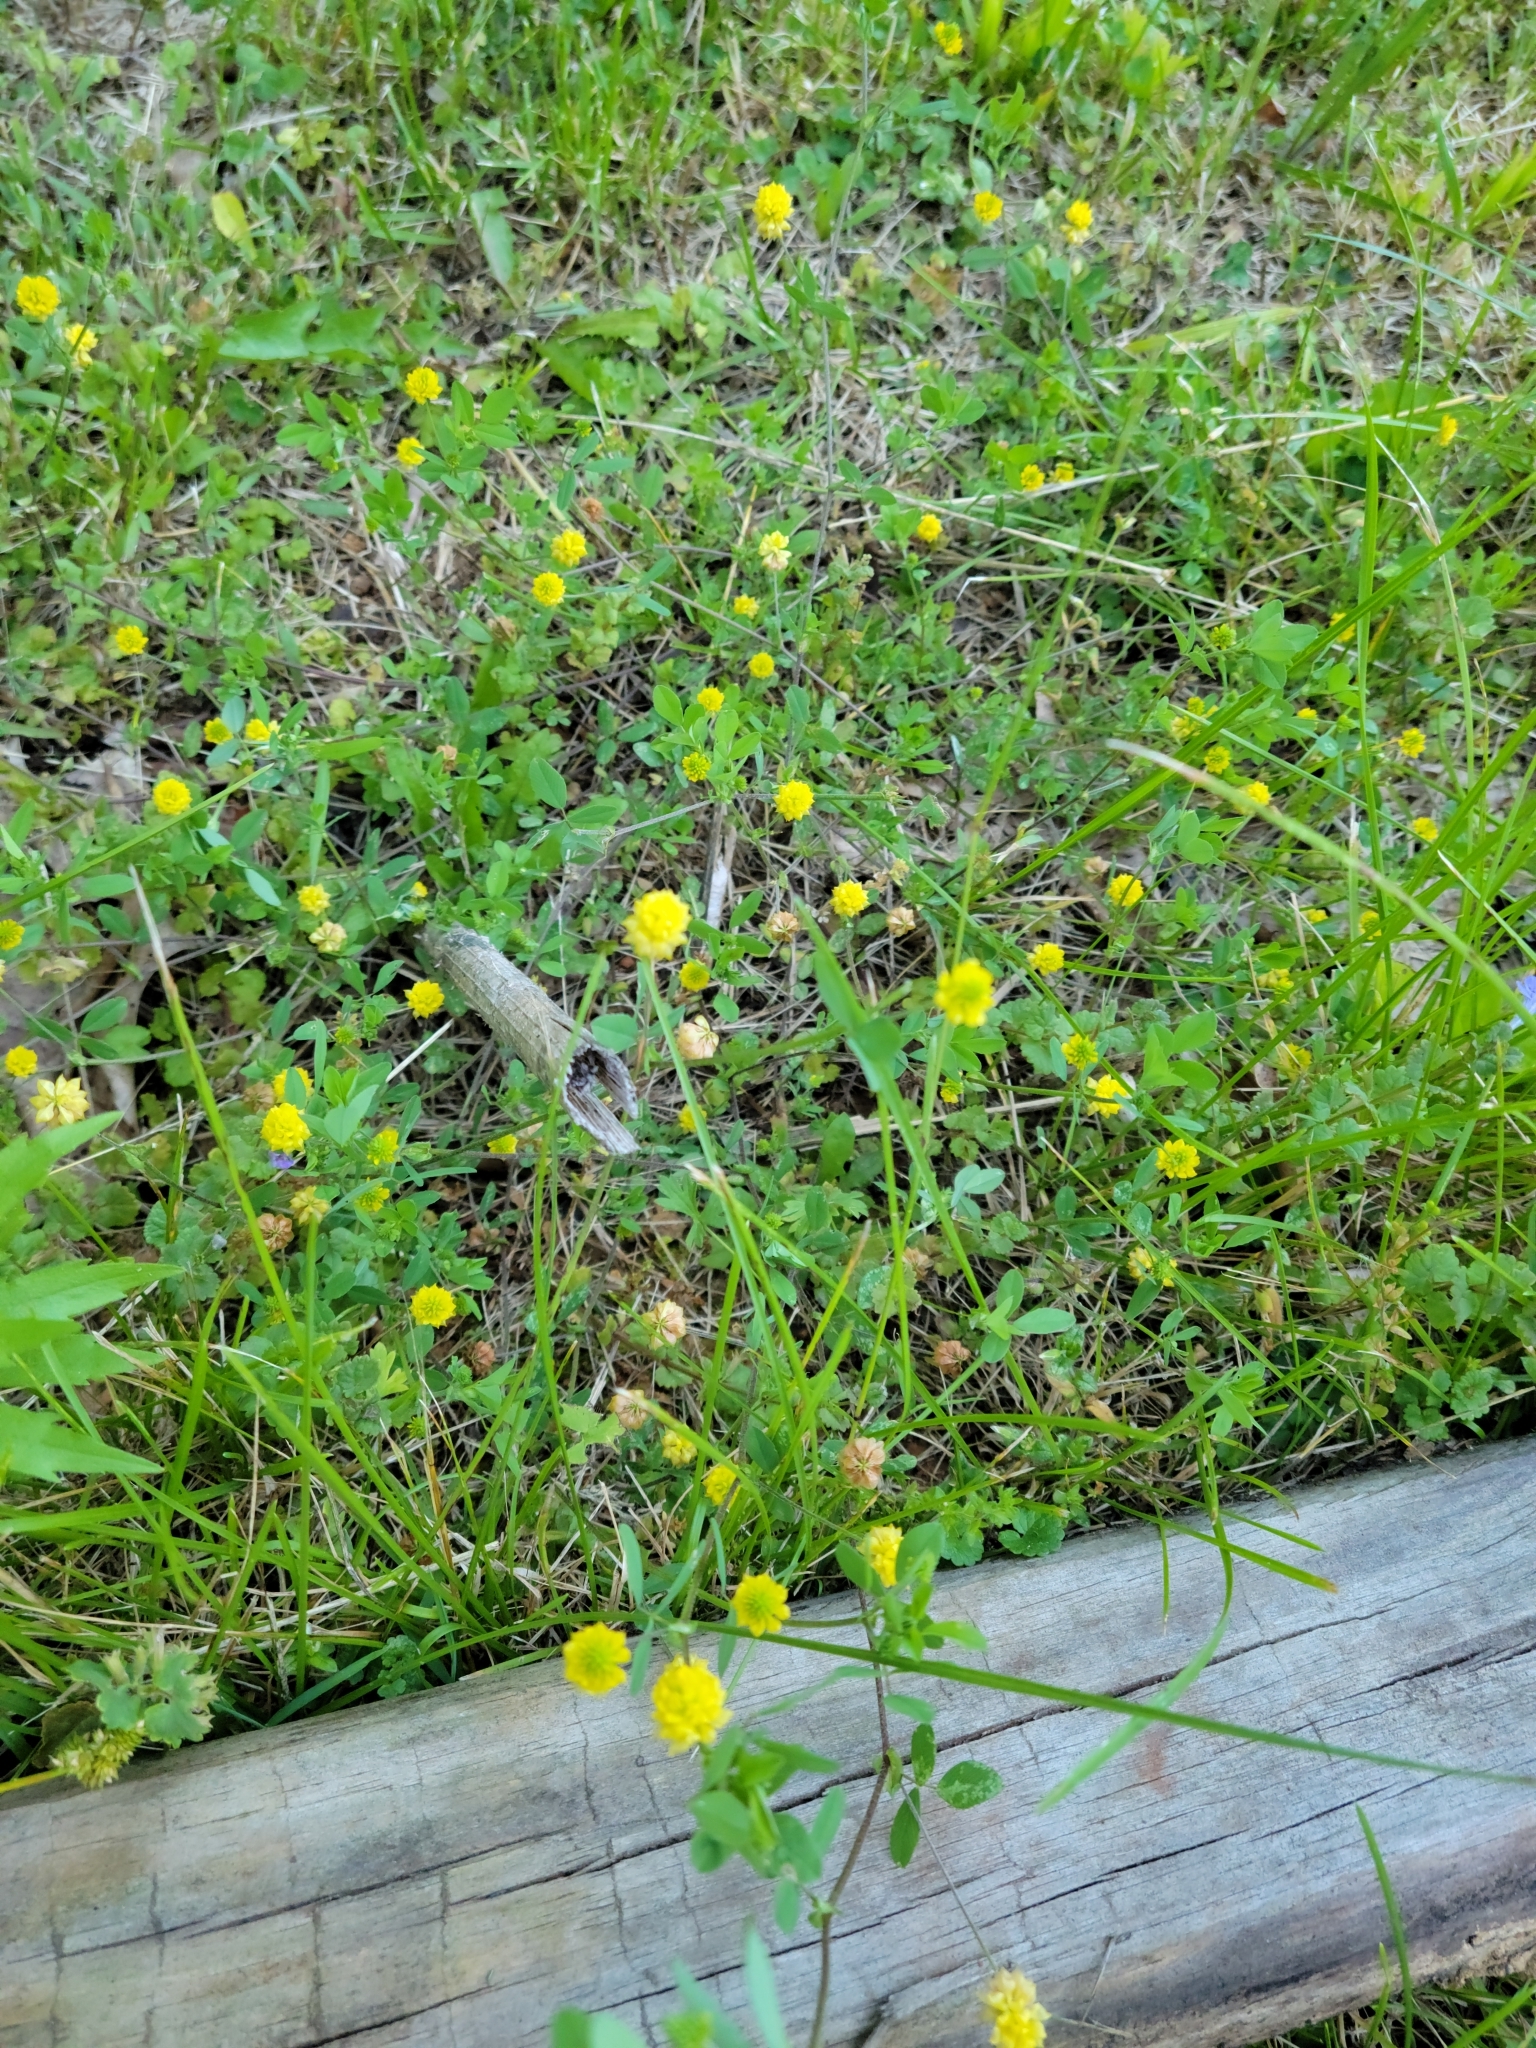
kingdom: Plantae
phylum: Tracheophyta
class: Magnoliopsida
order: Fabales
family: Fabaceae
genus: Trifolium
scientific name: Trifolium campestre
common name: Field clover
